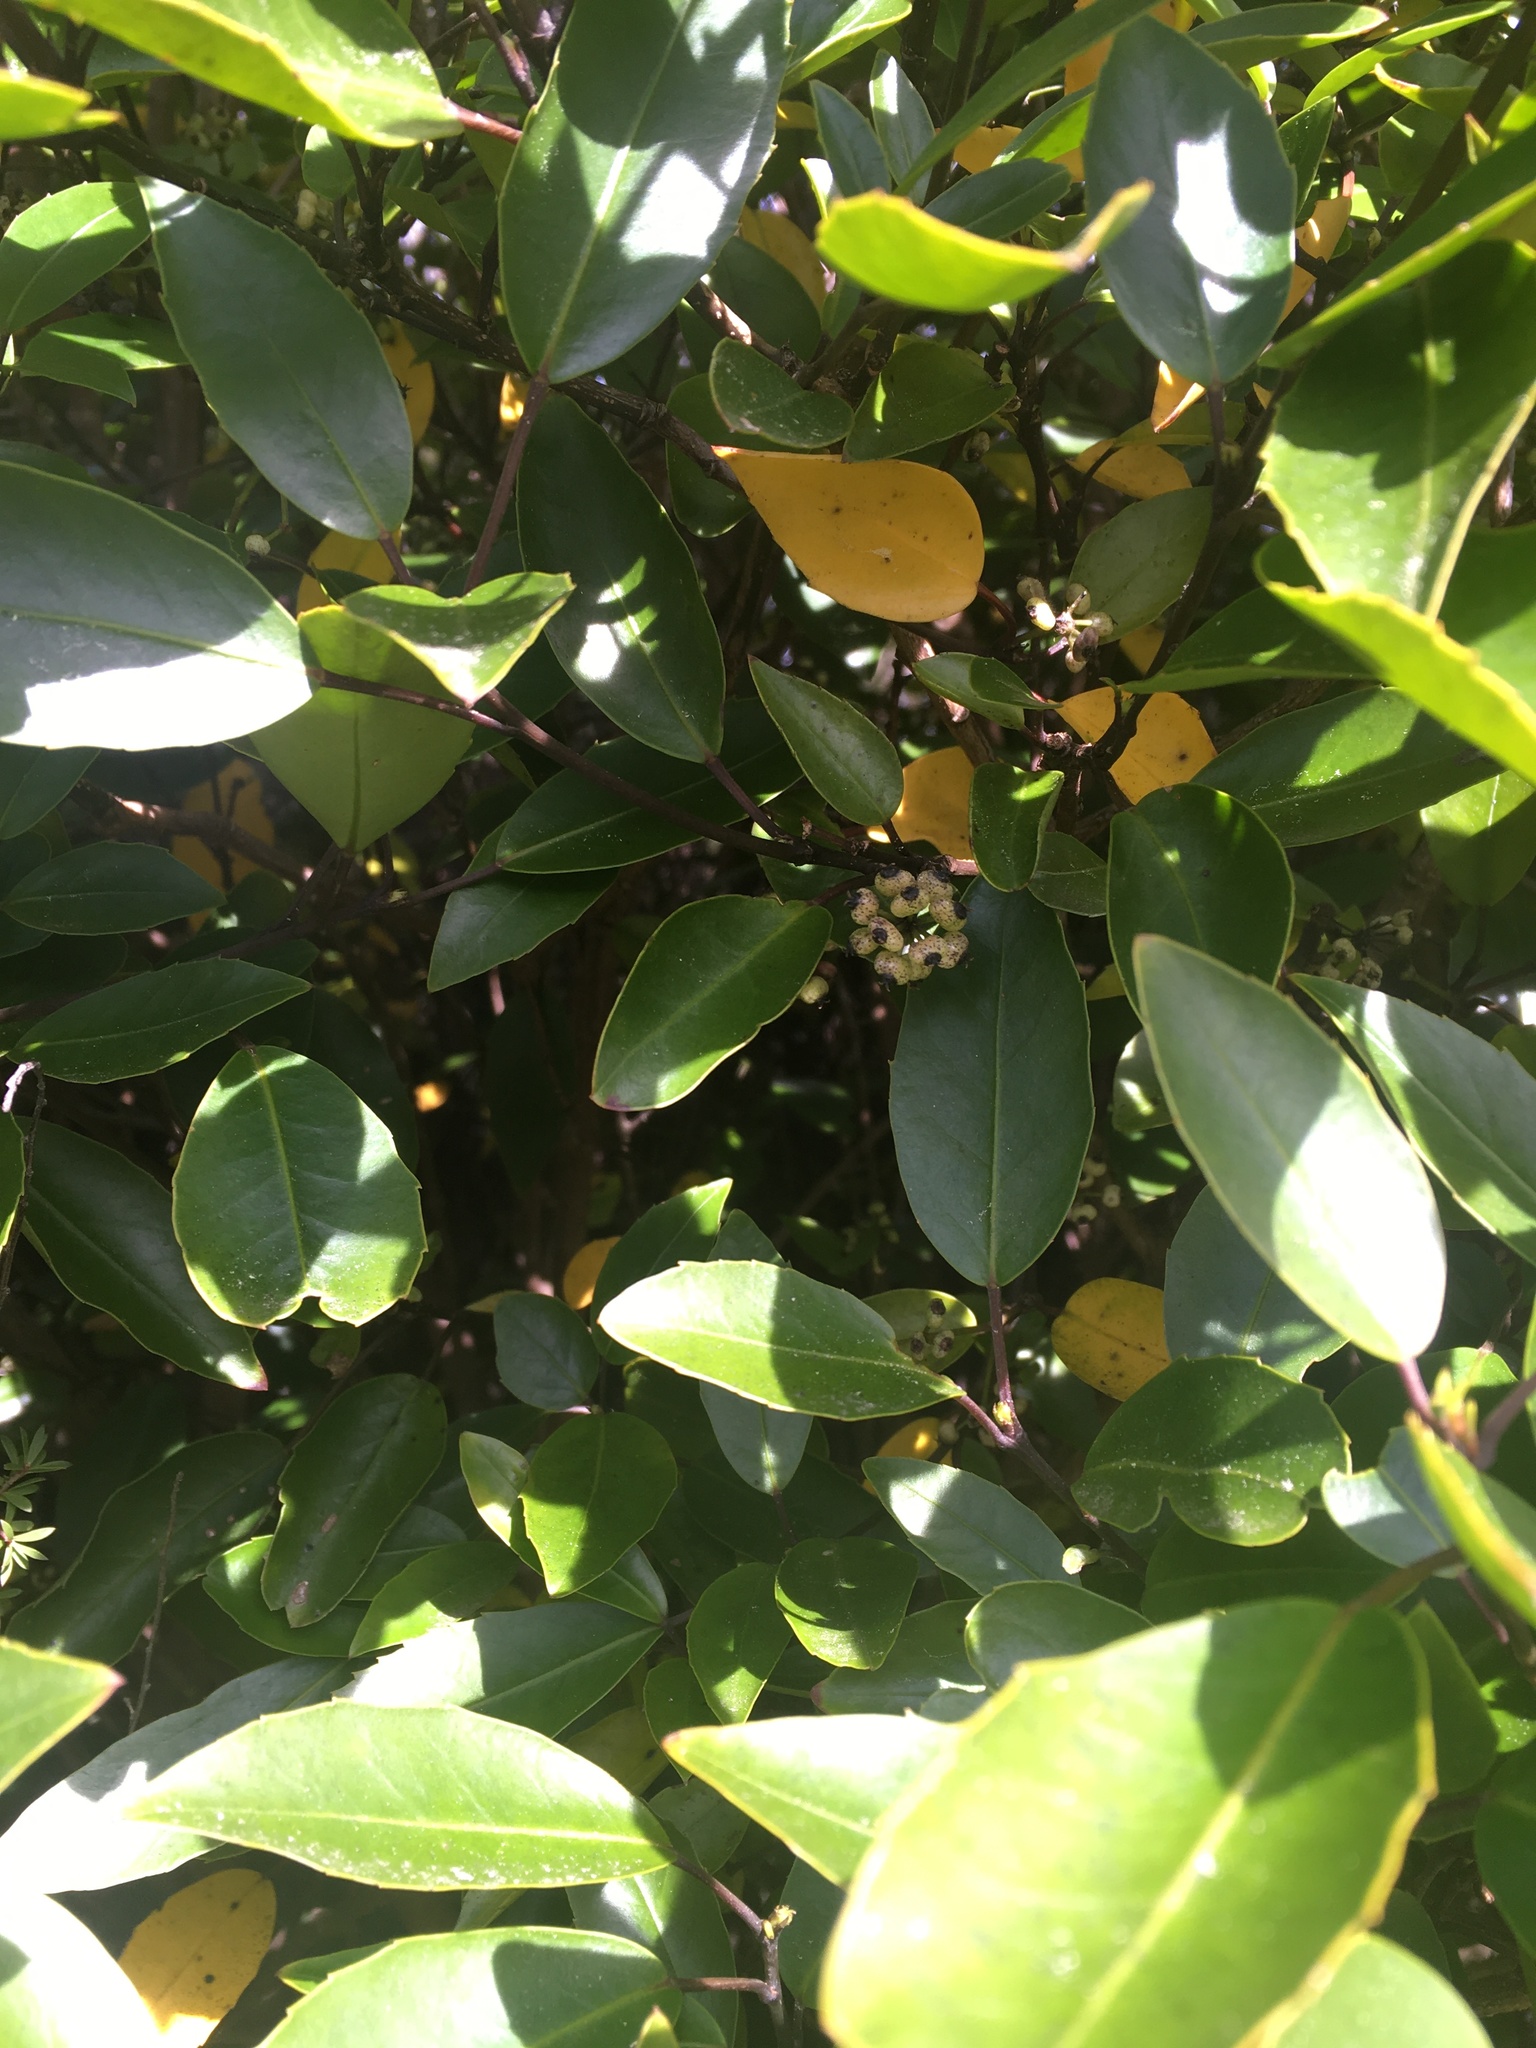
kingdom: Plantae
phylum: Tracheophyta
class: Magnoliopsida
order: Apiales
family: Araliaceae
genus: Raukaua
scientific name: Raukaua simplex
